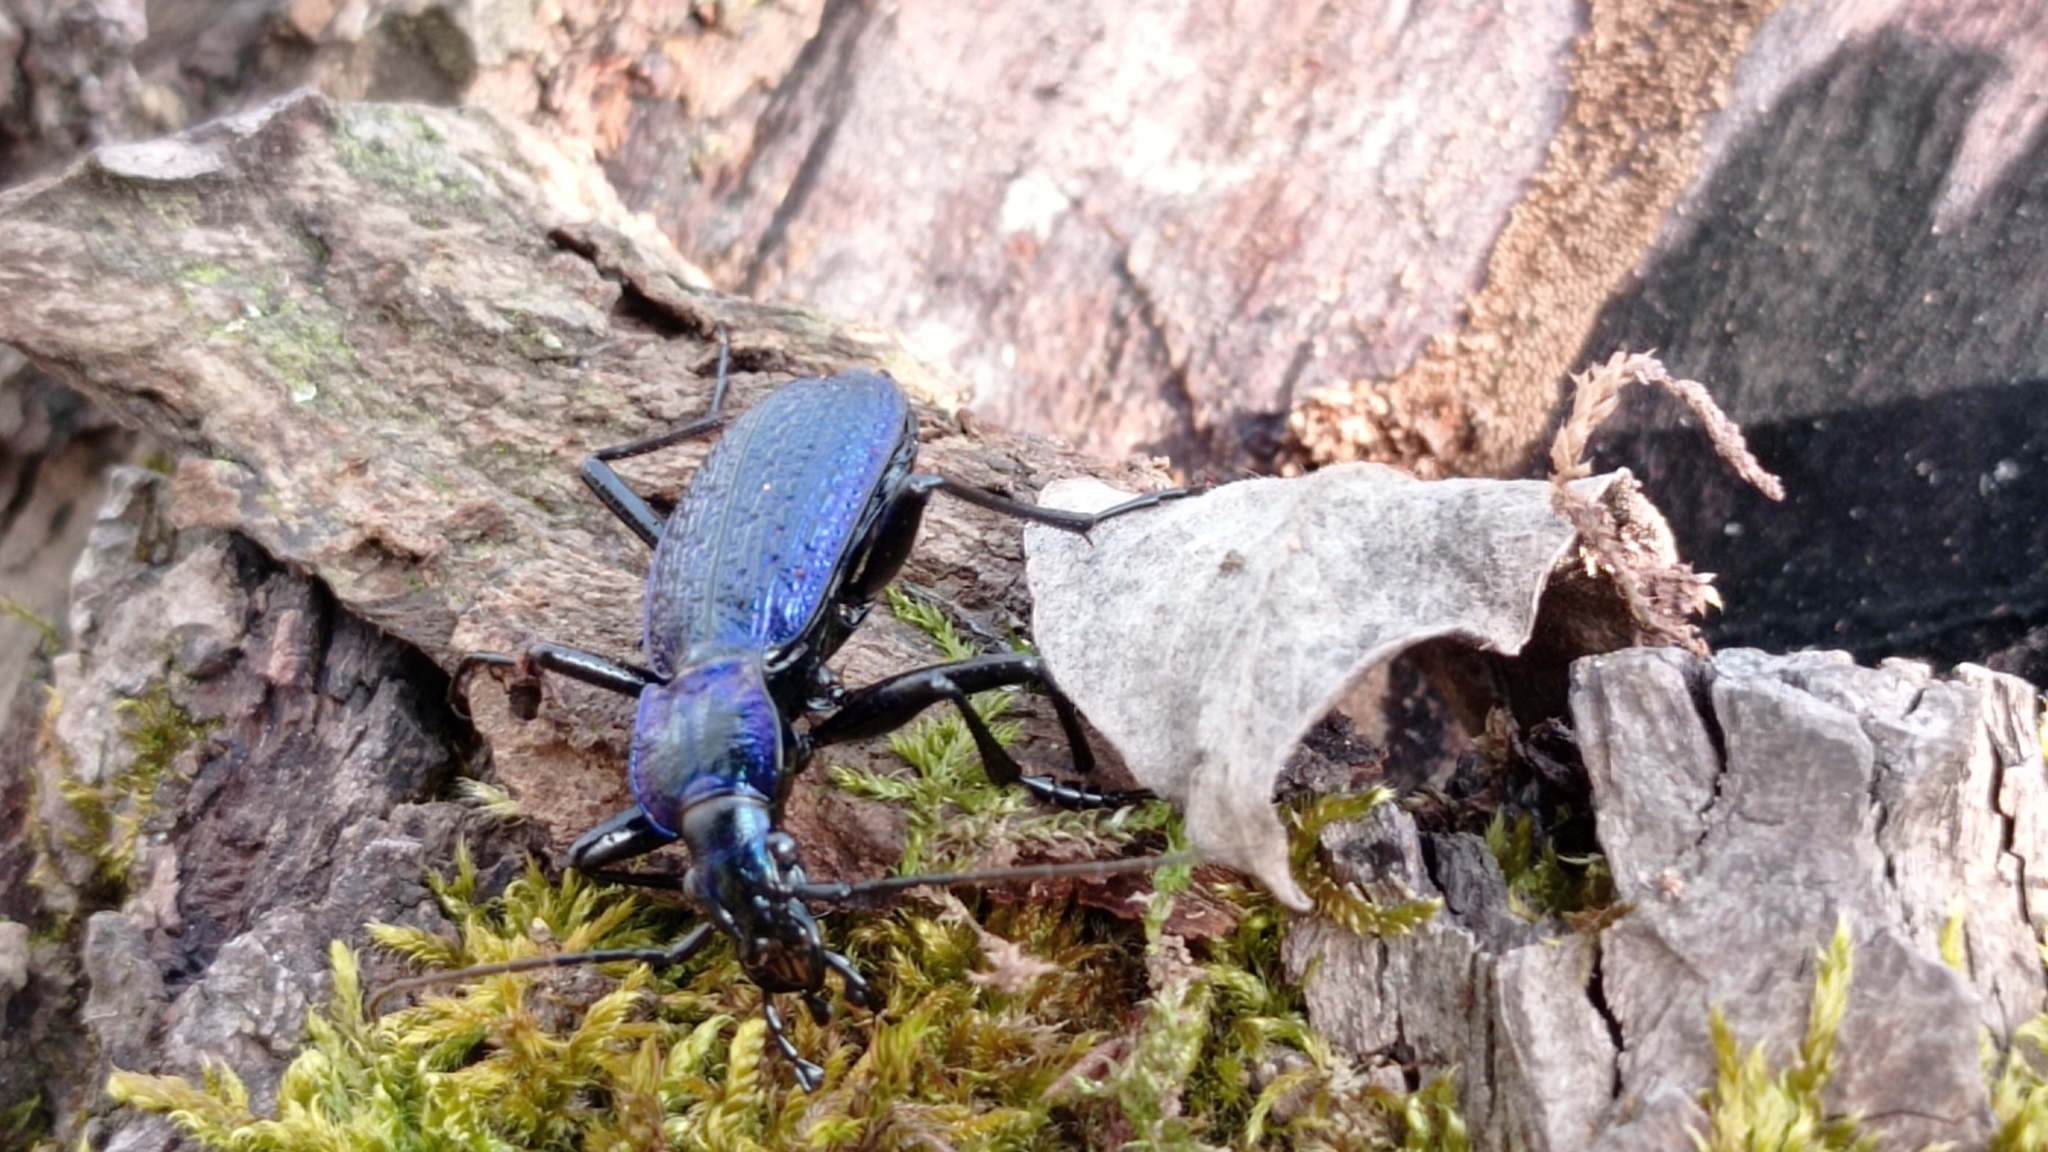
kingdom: Animalia
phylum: Arthropoda
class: Insecta
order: Coleoptera
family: Carabidae
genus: Carabus
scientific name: Carabus intricatus
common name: Blue ground beetle
